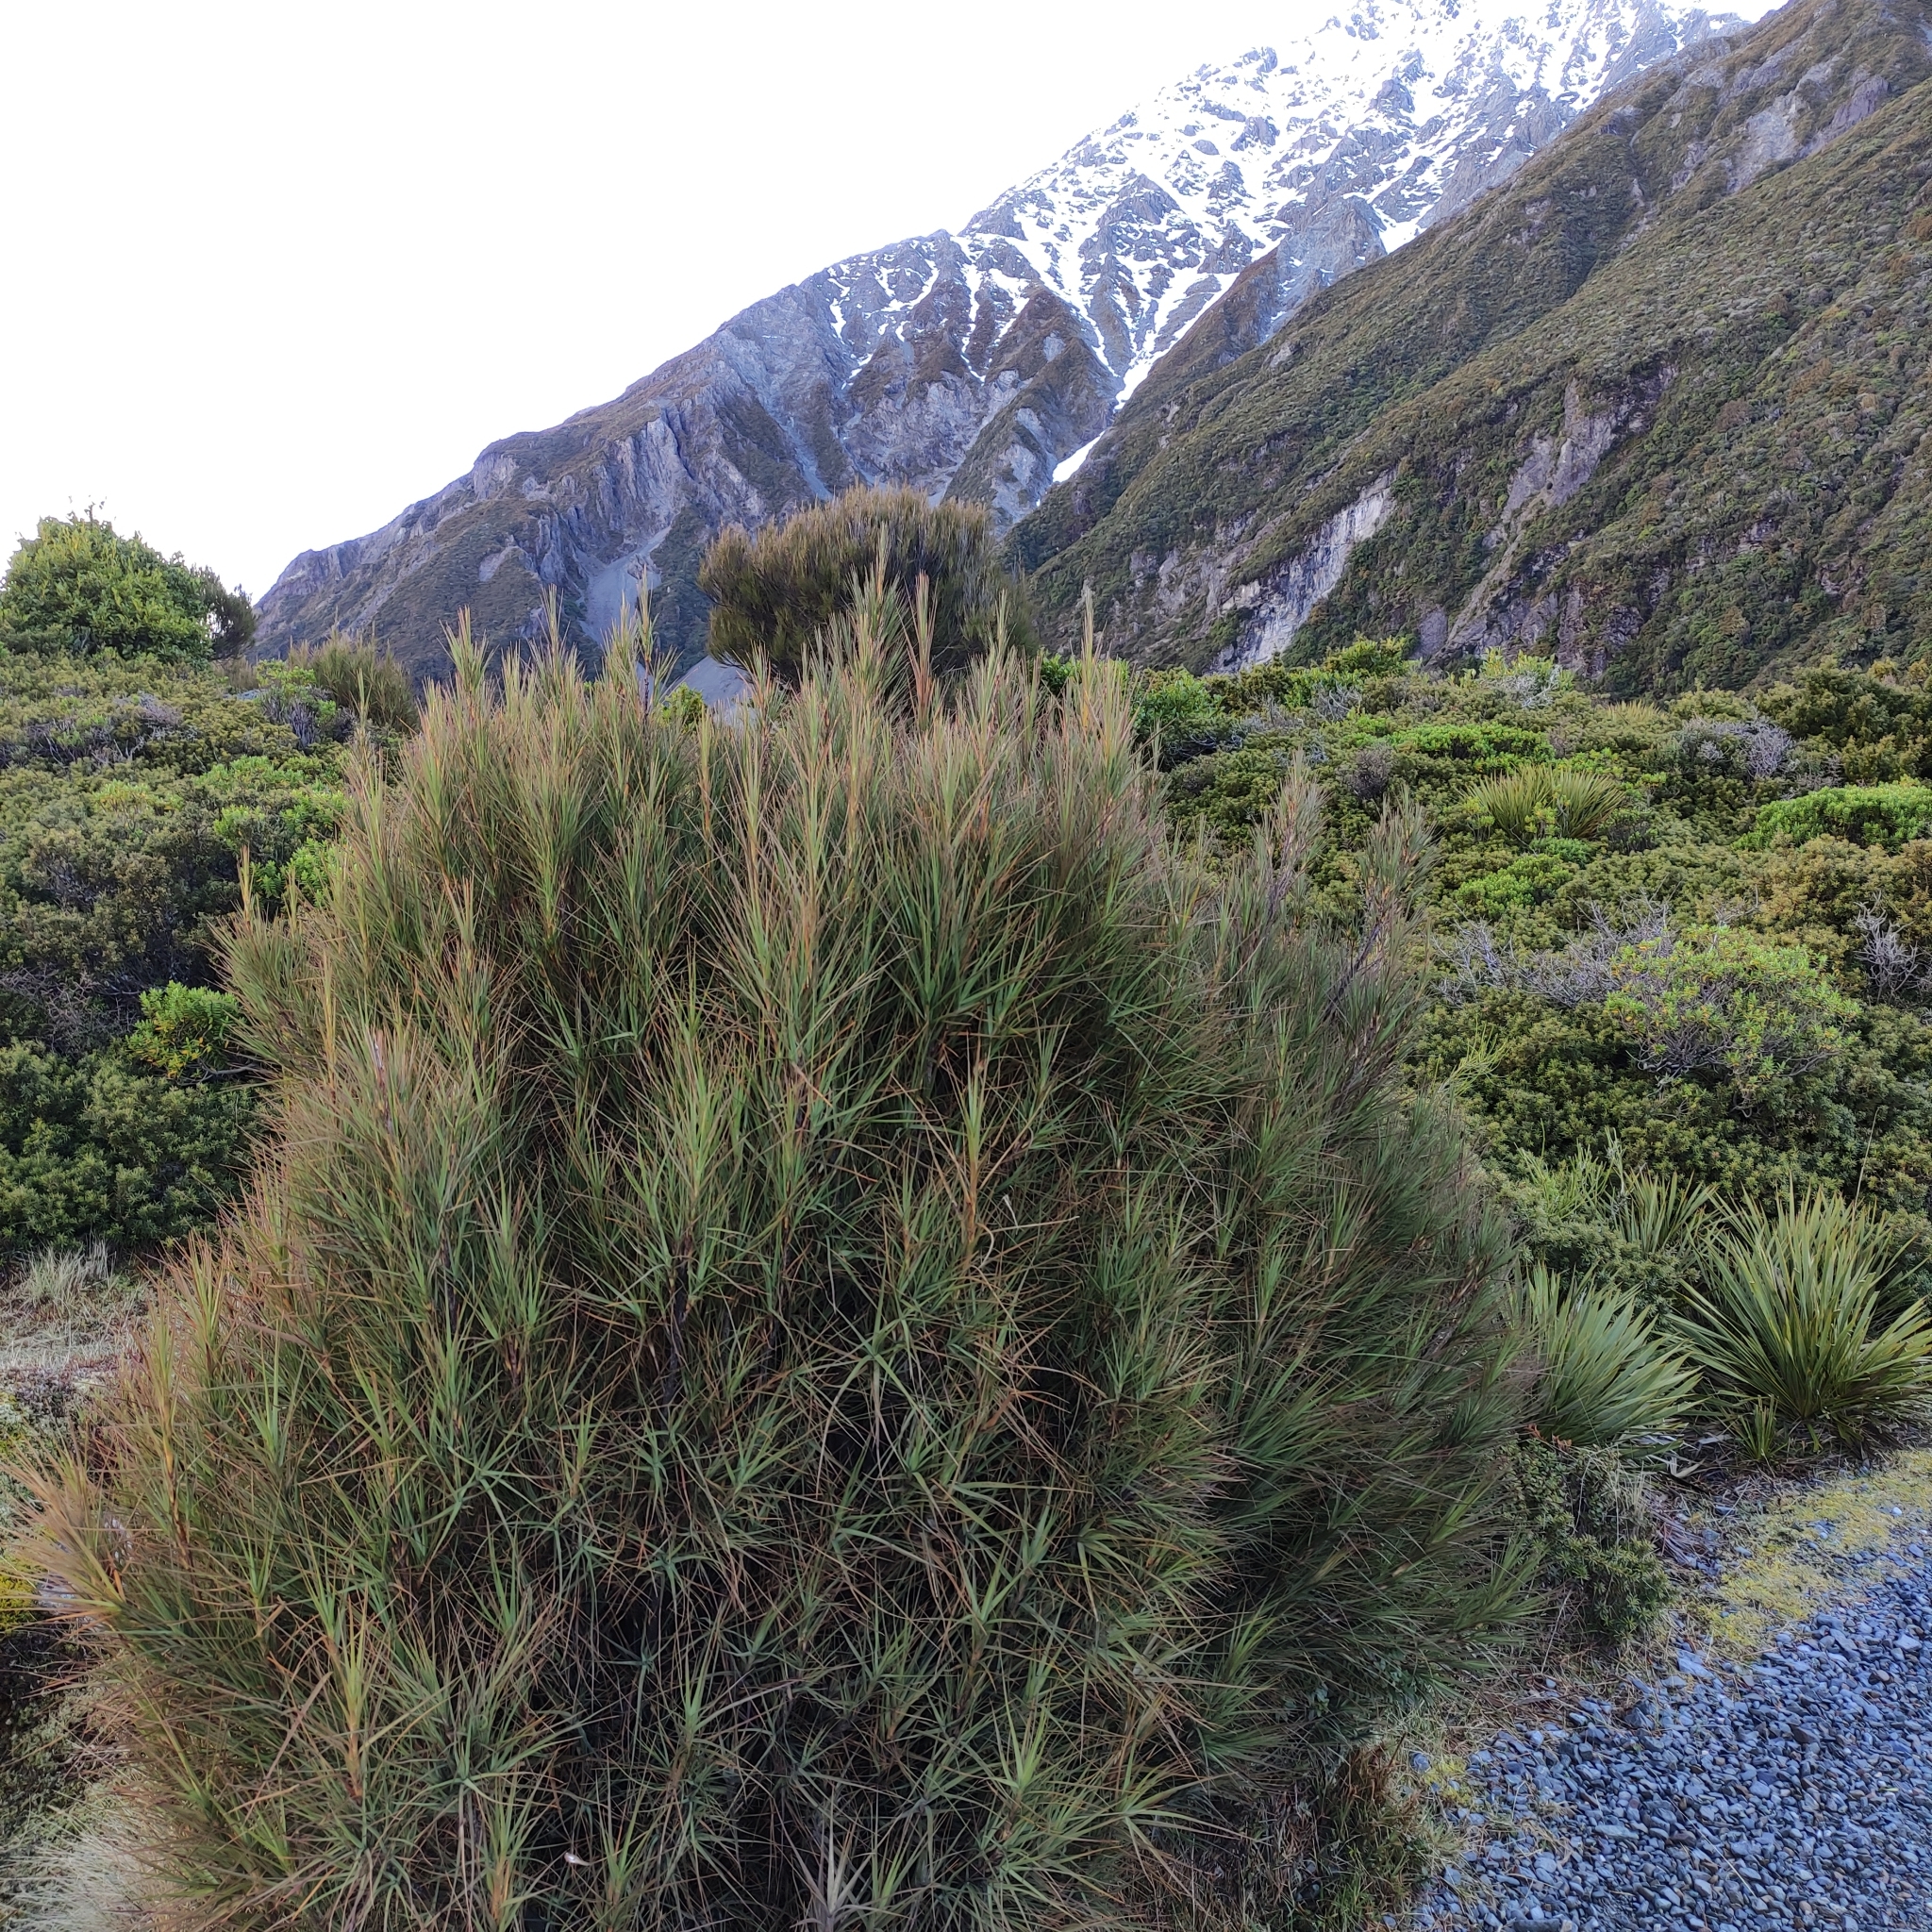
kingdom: Plantae
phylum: Tracheophyta
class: Magnoliopsida
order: Ericales
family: Ericaceae
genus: Dracophyllum
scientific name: Dracophyllum longifolium
